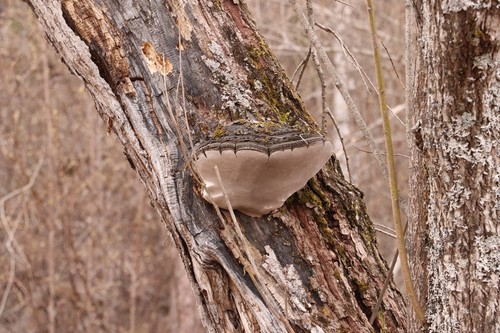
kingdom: Fungi
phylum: Basidiomycota
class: Agaricomycetes
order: Hymenochaetales
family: Hymenochaetaceae
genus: Phellinus
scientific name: Phellinus igniarius
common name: Willow bracket
